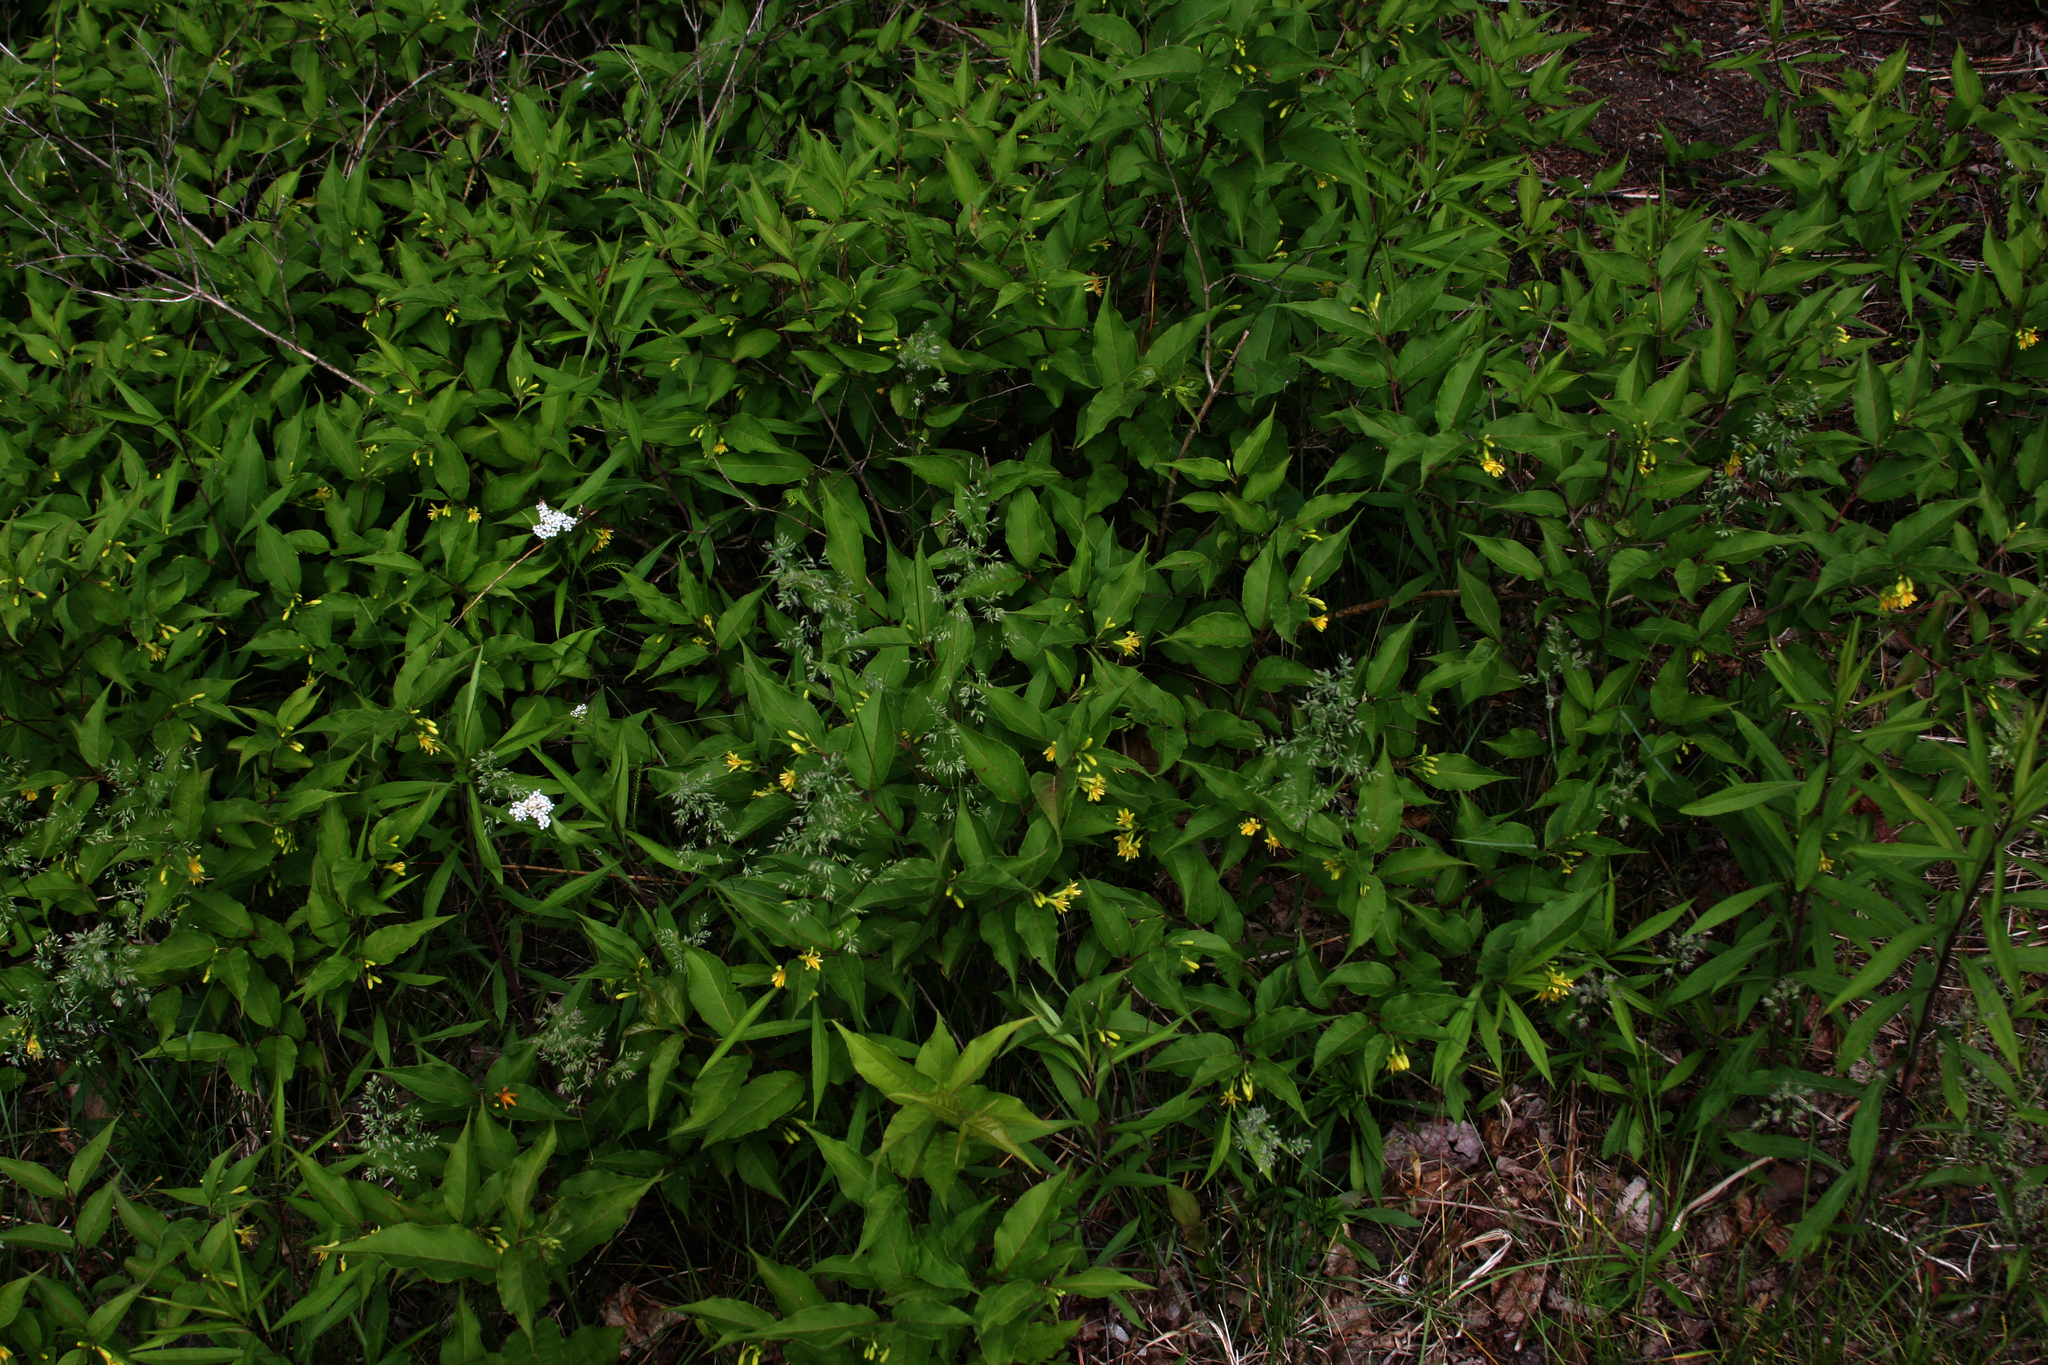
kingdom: Plantae
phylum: Tracheophyta
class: Magnoliopsida
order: Dipsacales
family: Caprifoliaceae
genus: Diervilla
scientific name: Diervilla lonicera
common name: Bush-honeysuckle
